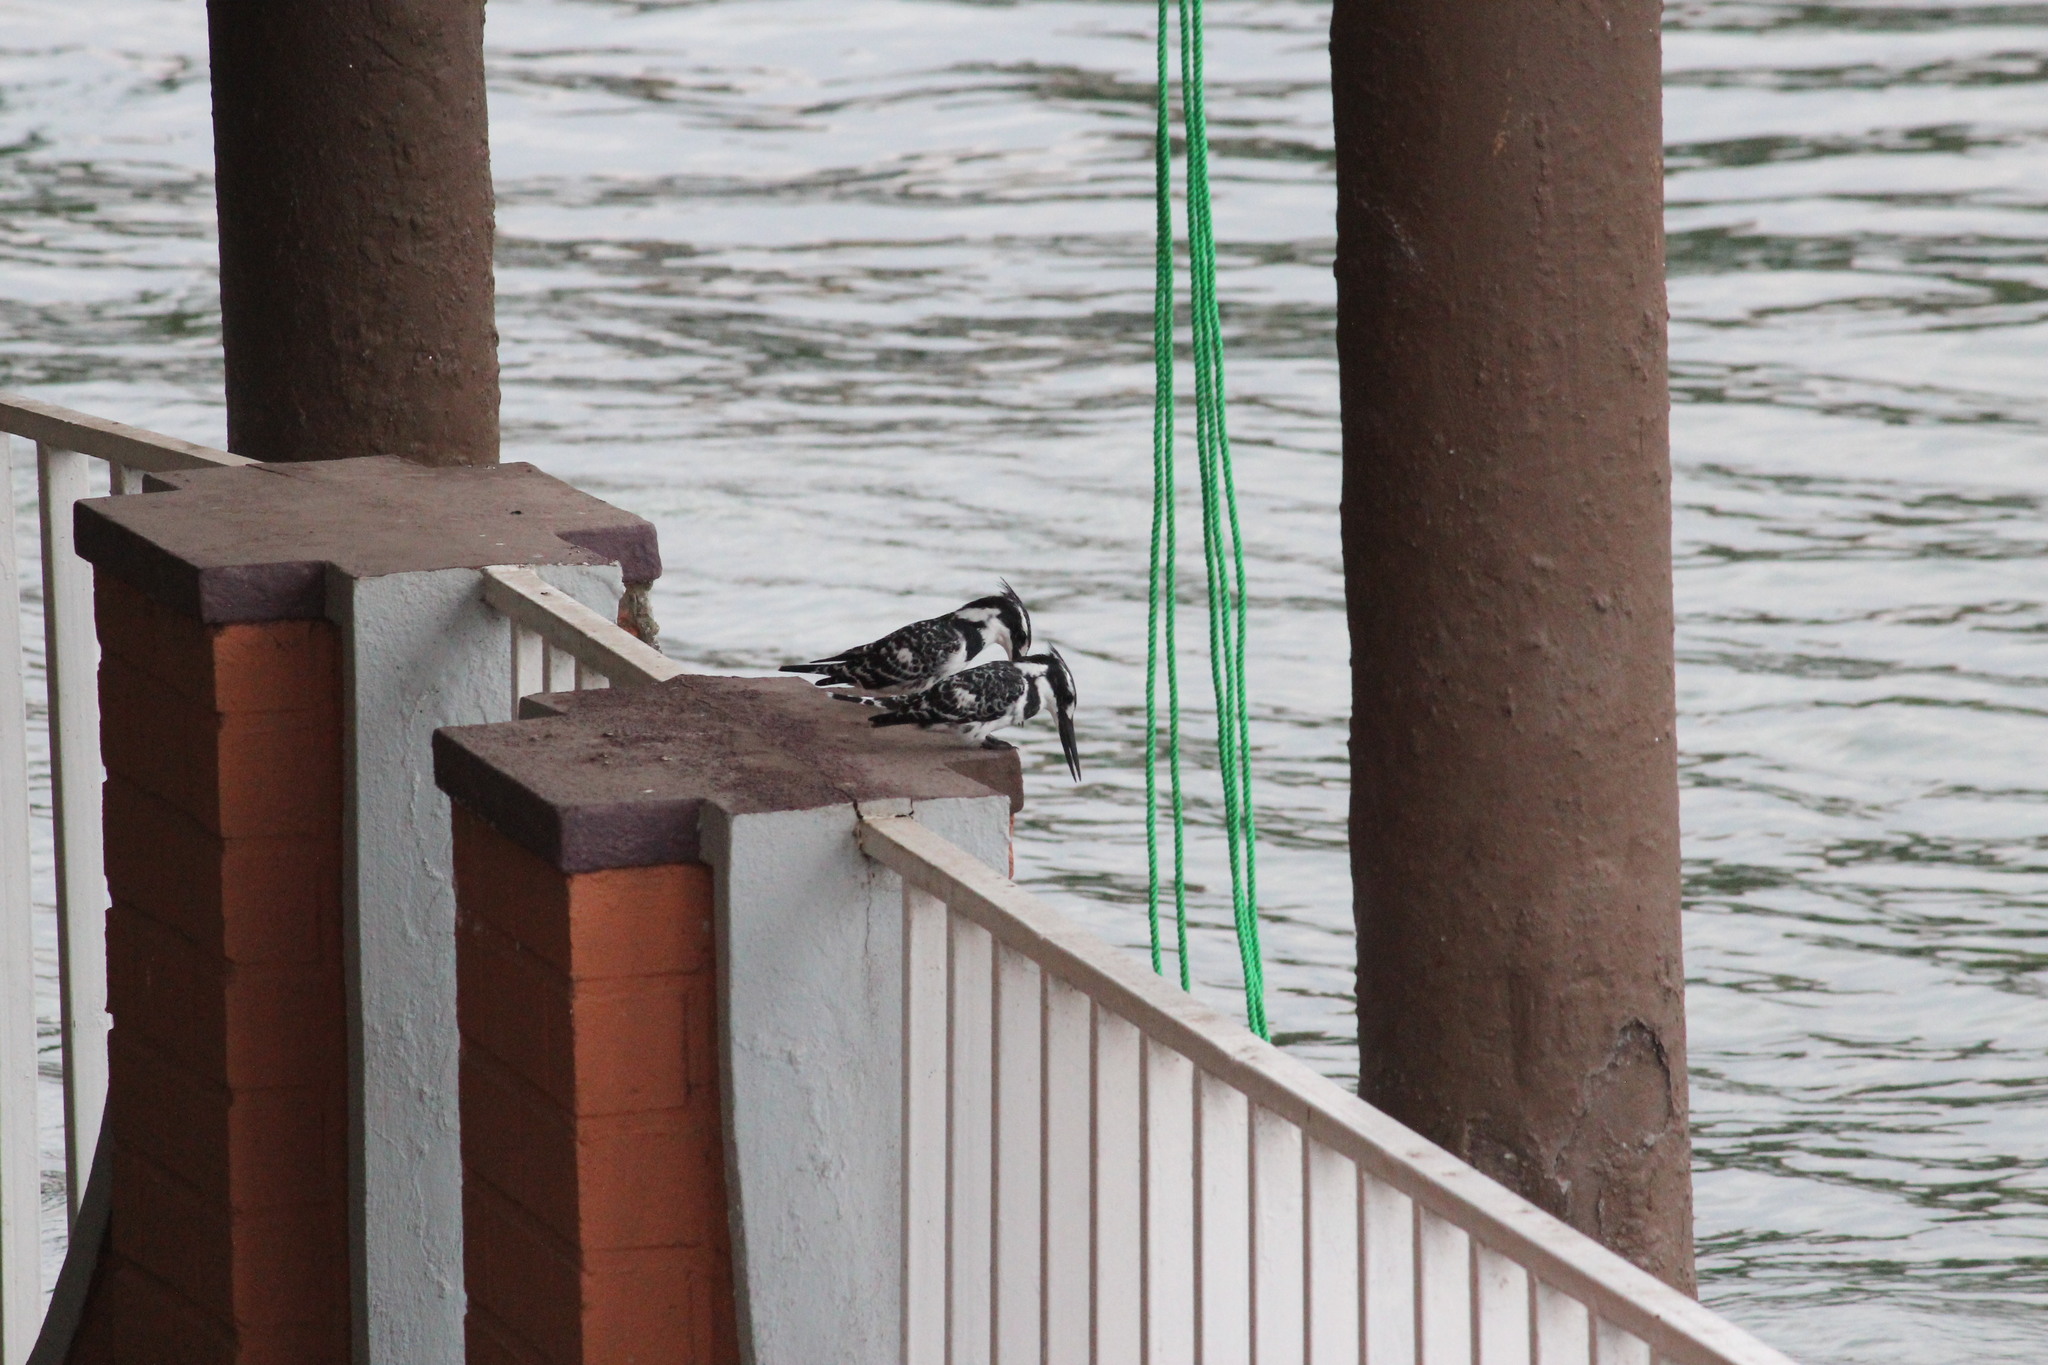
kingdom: Animalia
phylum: Chordata
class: Aves
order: Coraciiformes
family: Alcedinidae
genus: Ceryle
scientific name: Ceryle rudis
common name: Pied kingfisher
